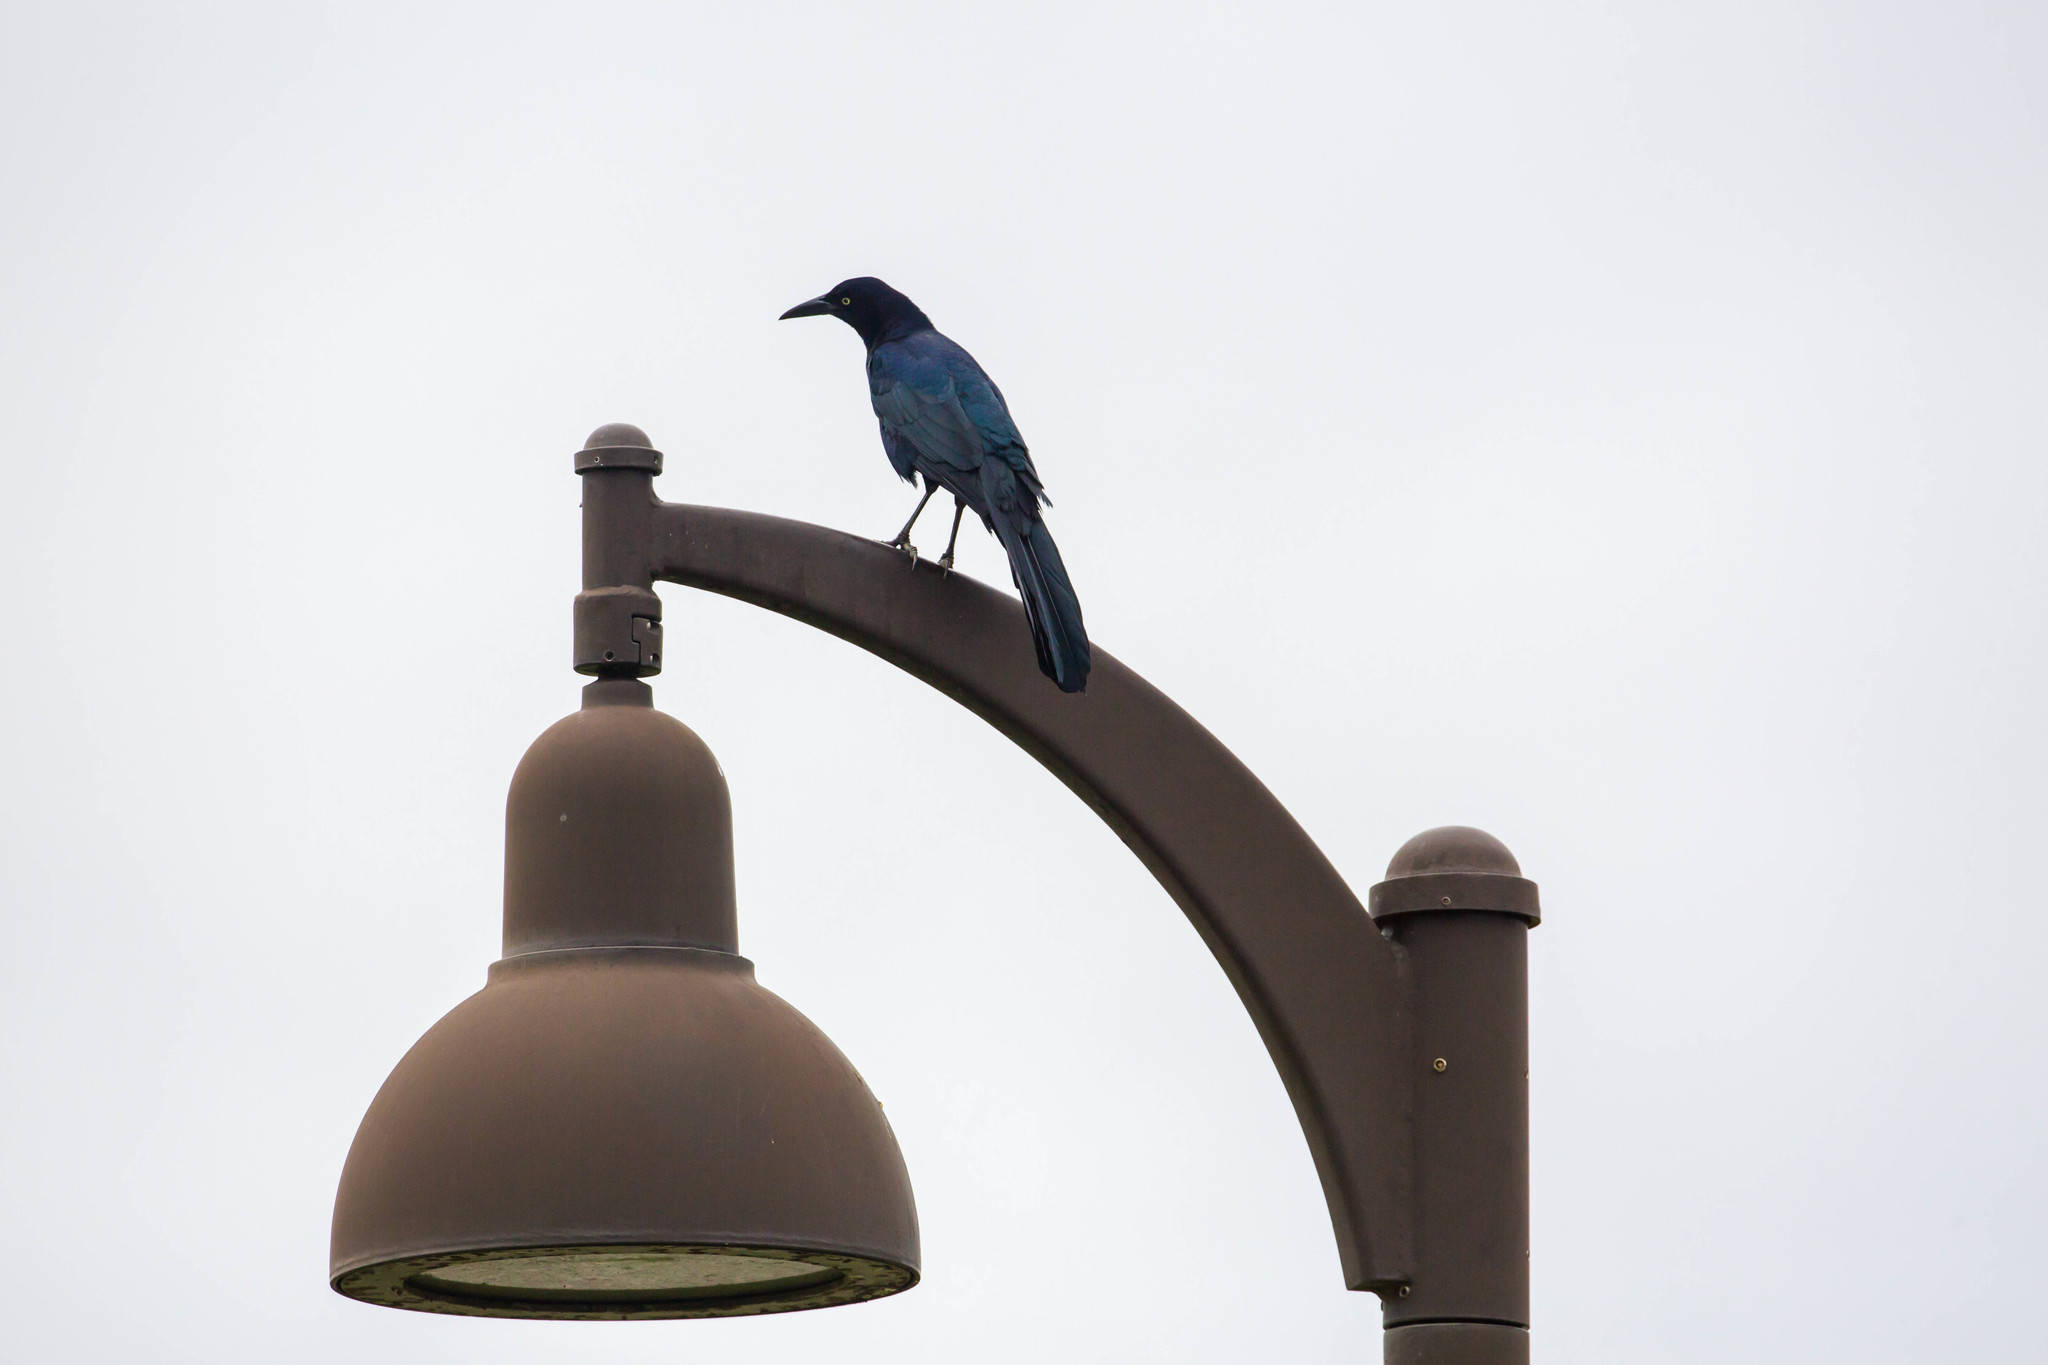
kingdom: Animalia
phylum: Chordata
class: Aves
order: Passeriformes
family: Icteridae
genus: Quiscalus
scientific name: Quiscalus mexicanus
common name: Great-tailed grackle
